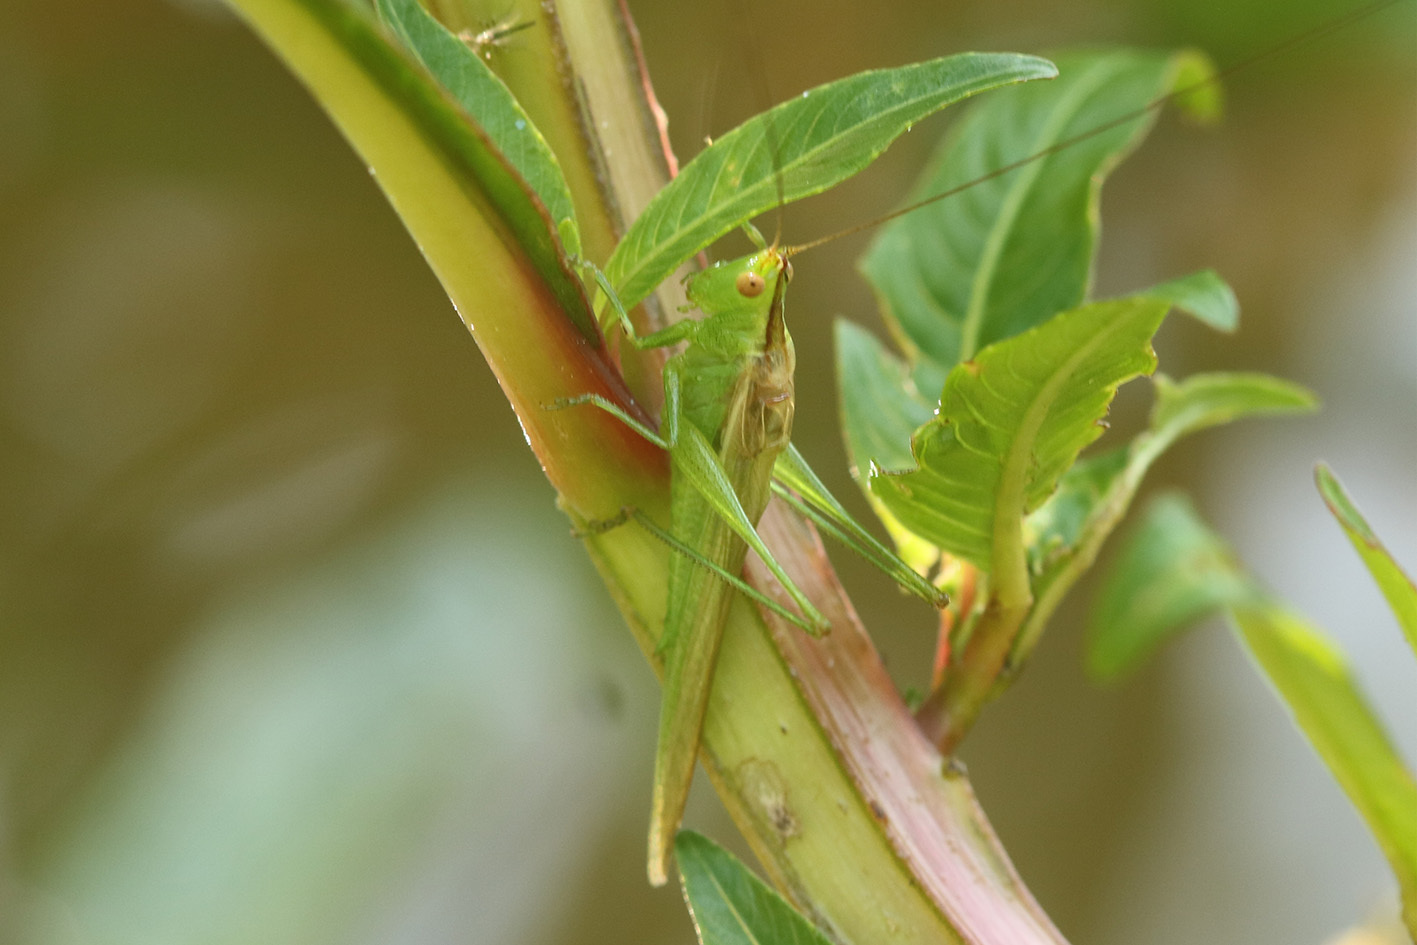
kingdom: Animalia
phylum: Arthropoda
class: Insecta
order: Orthoptera
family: Tettigoniidae
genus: Conocephalus
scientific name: Conocephalus longipes
